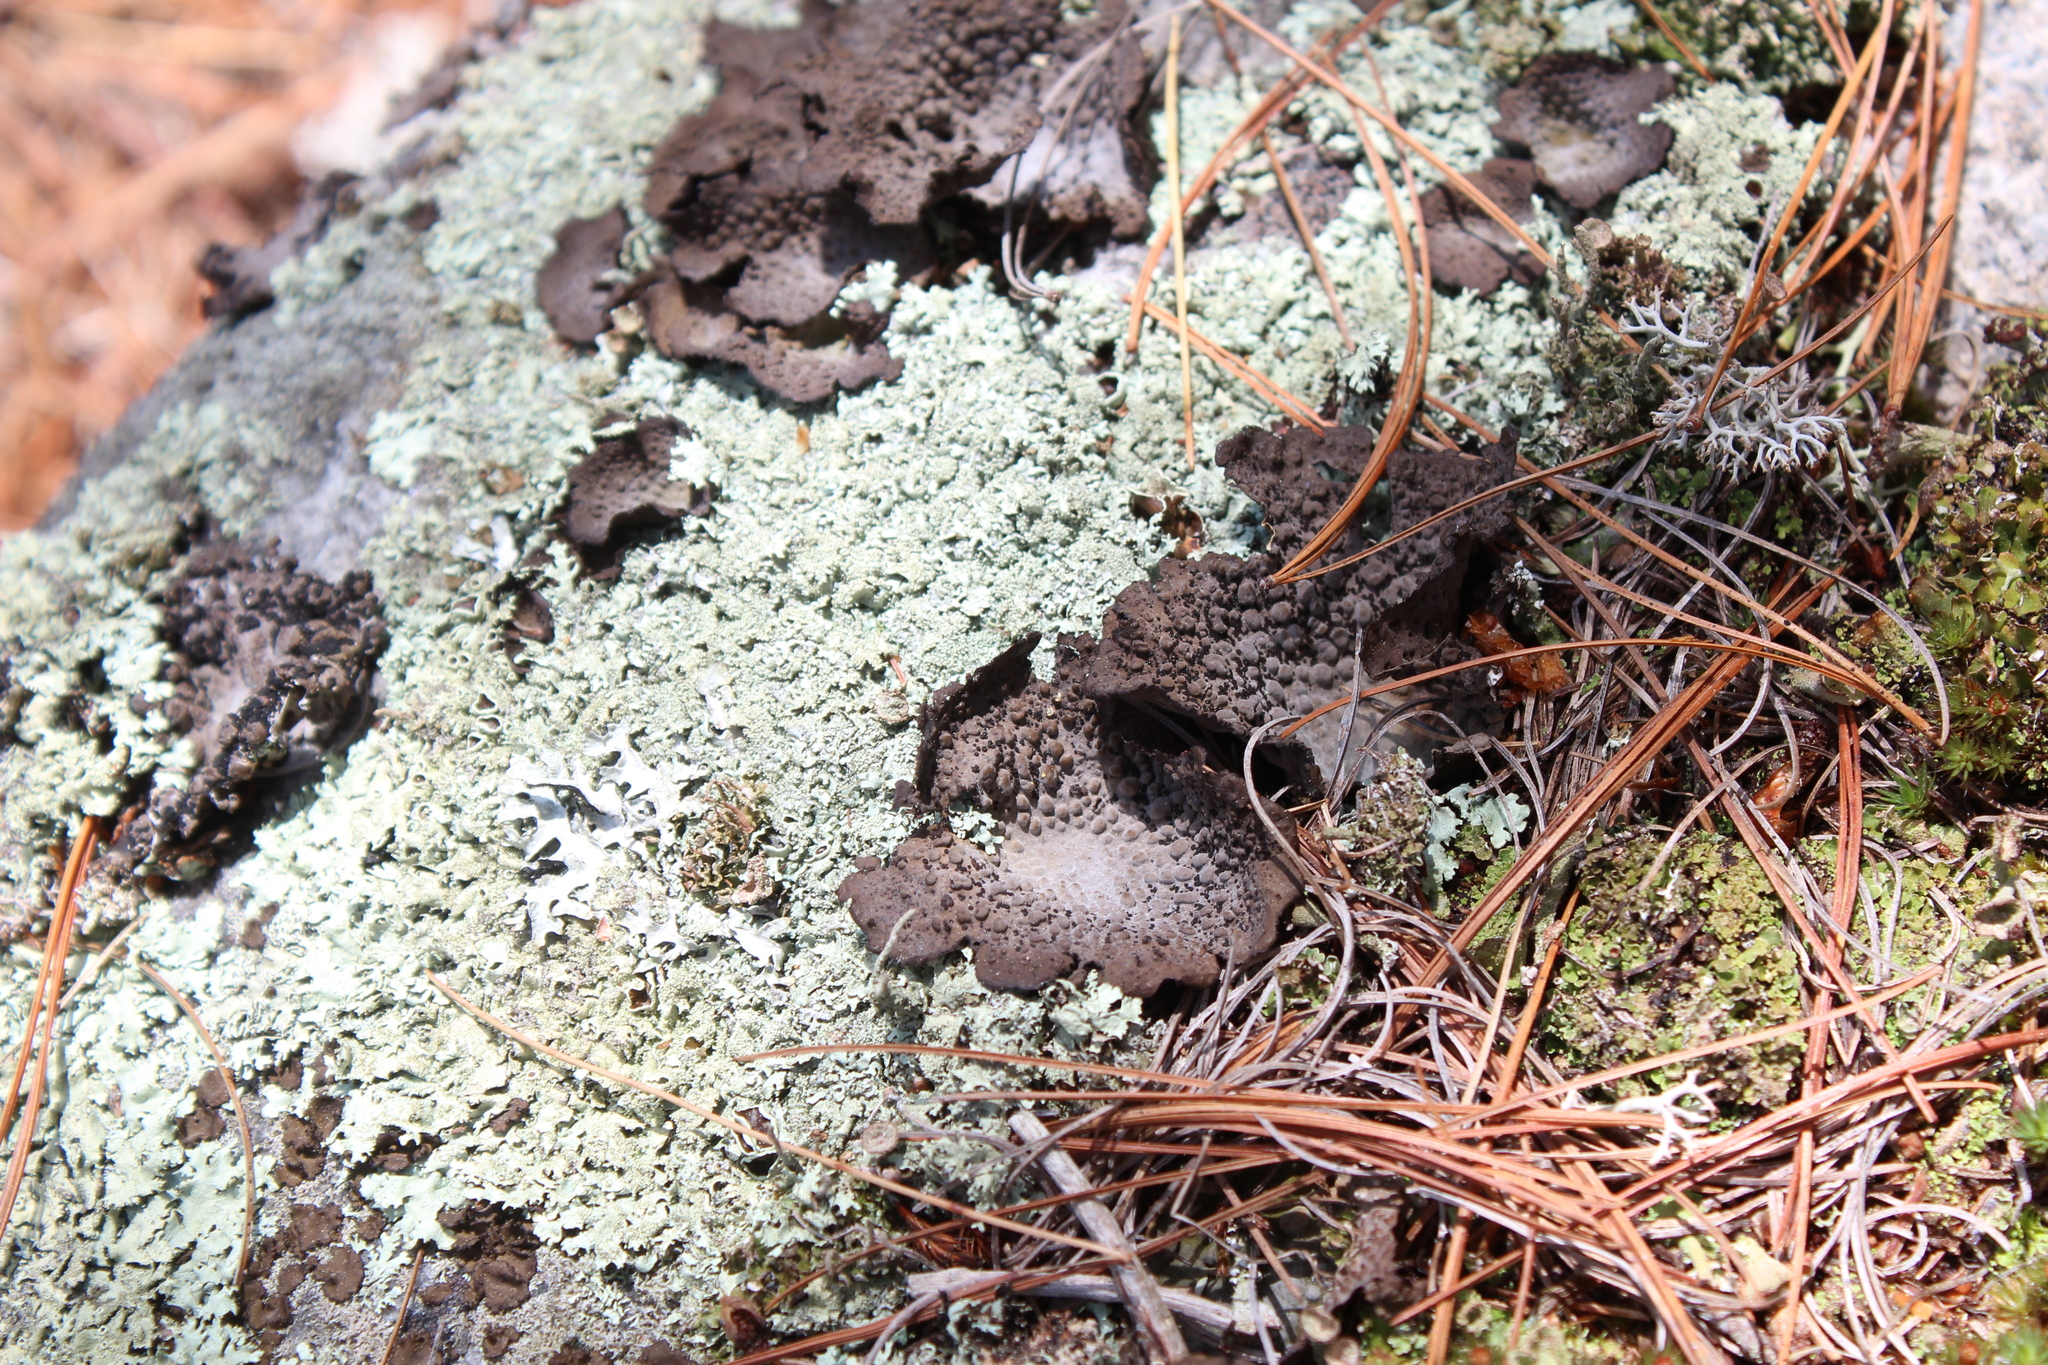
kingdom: Fungi
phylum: Ascomycota
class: Lecanoromycetes
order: Umbilicariales
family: Umbilicariaceae
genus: Lasallia
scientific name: Lasallia papulosa
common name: Common toadskin lichen
